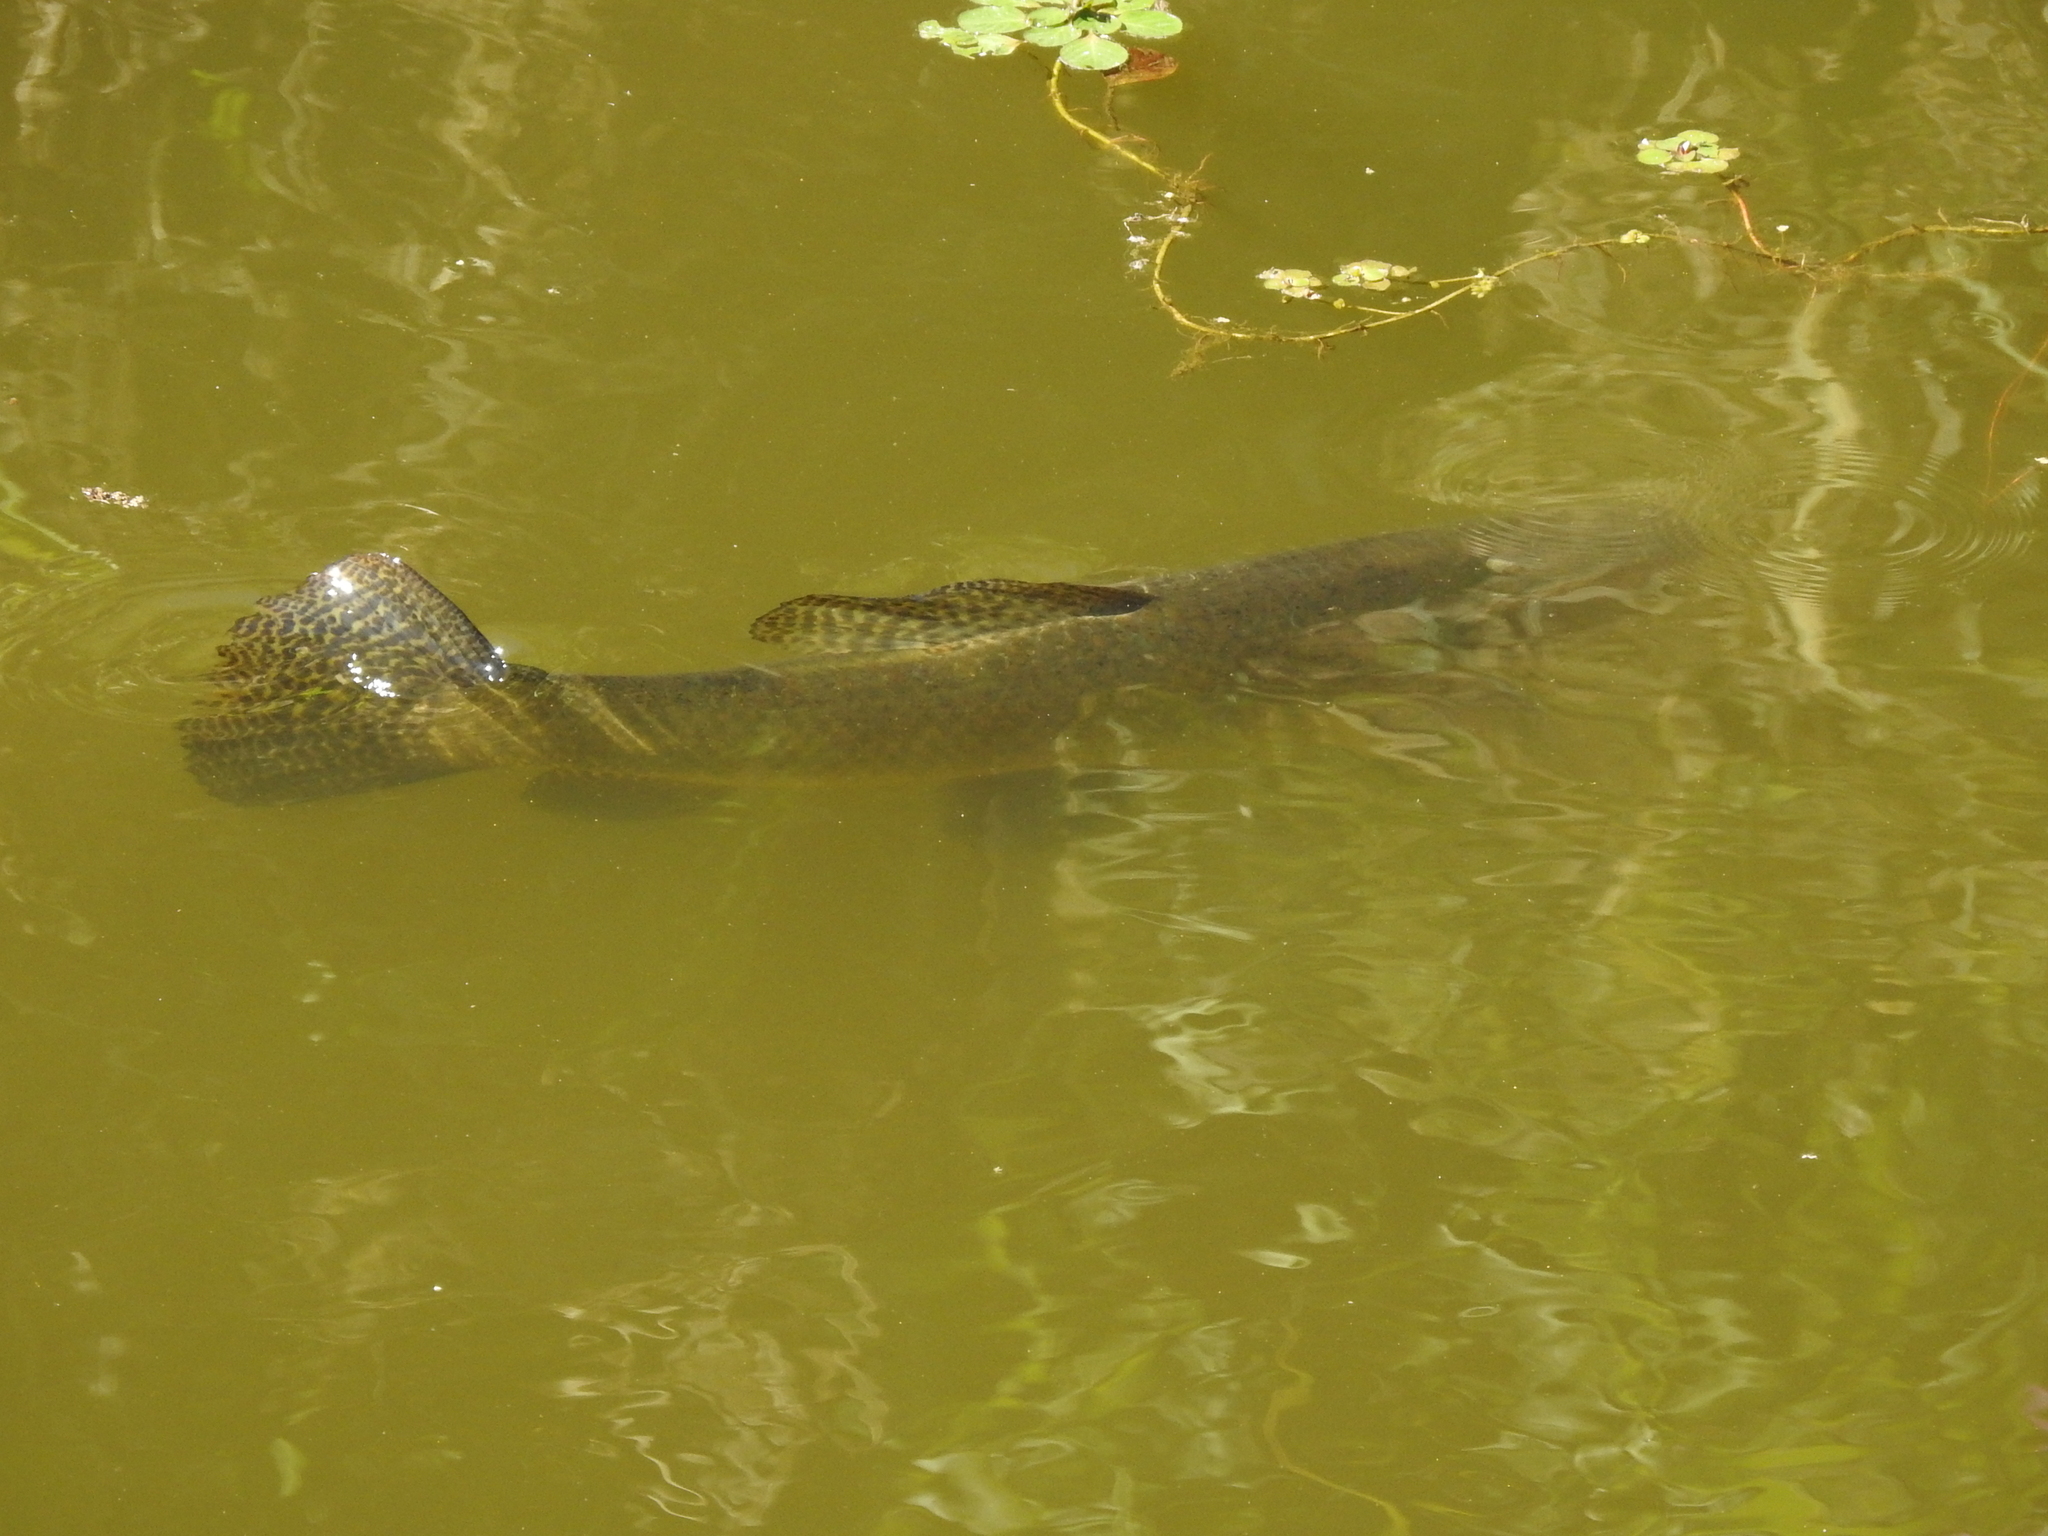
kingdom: Animalia
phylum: Chordata
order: Characiformes
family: Erythrinidae
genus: Hoplias
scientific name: Hoplias argentinensis
